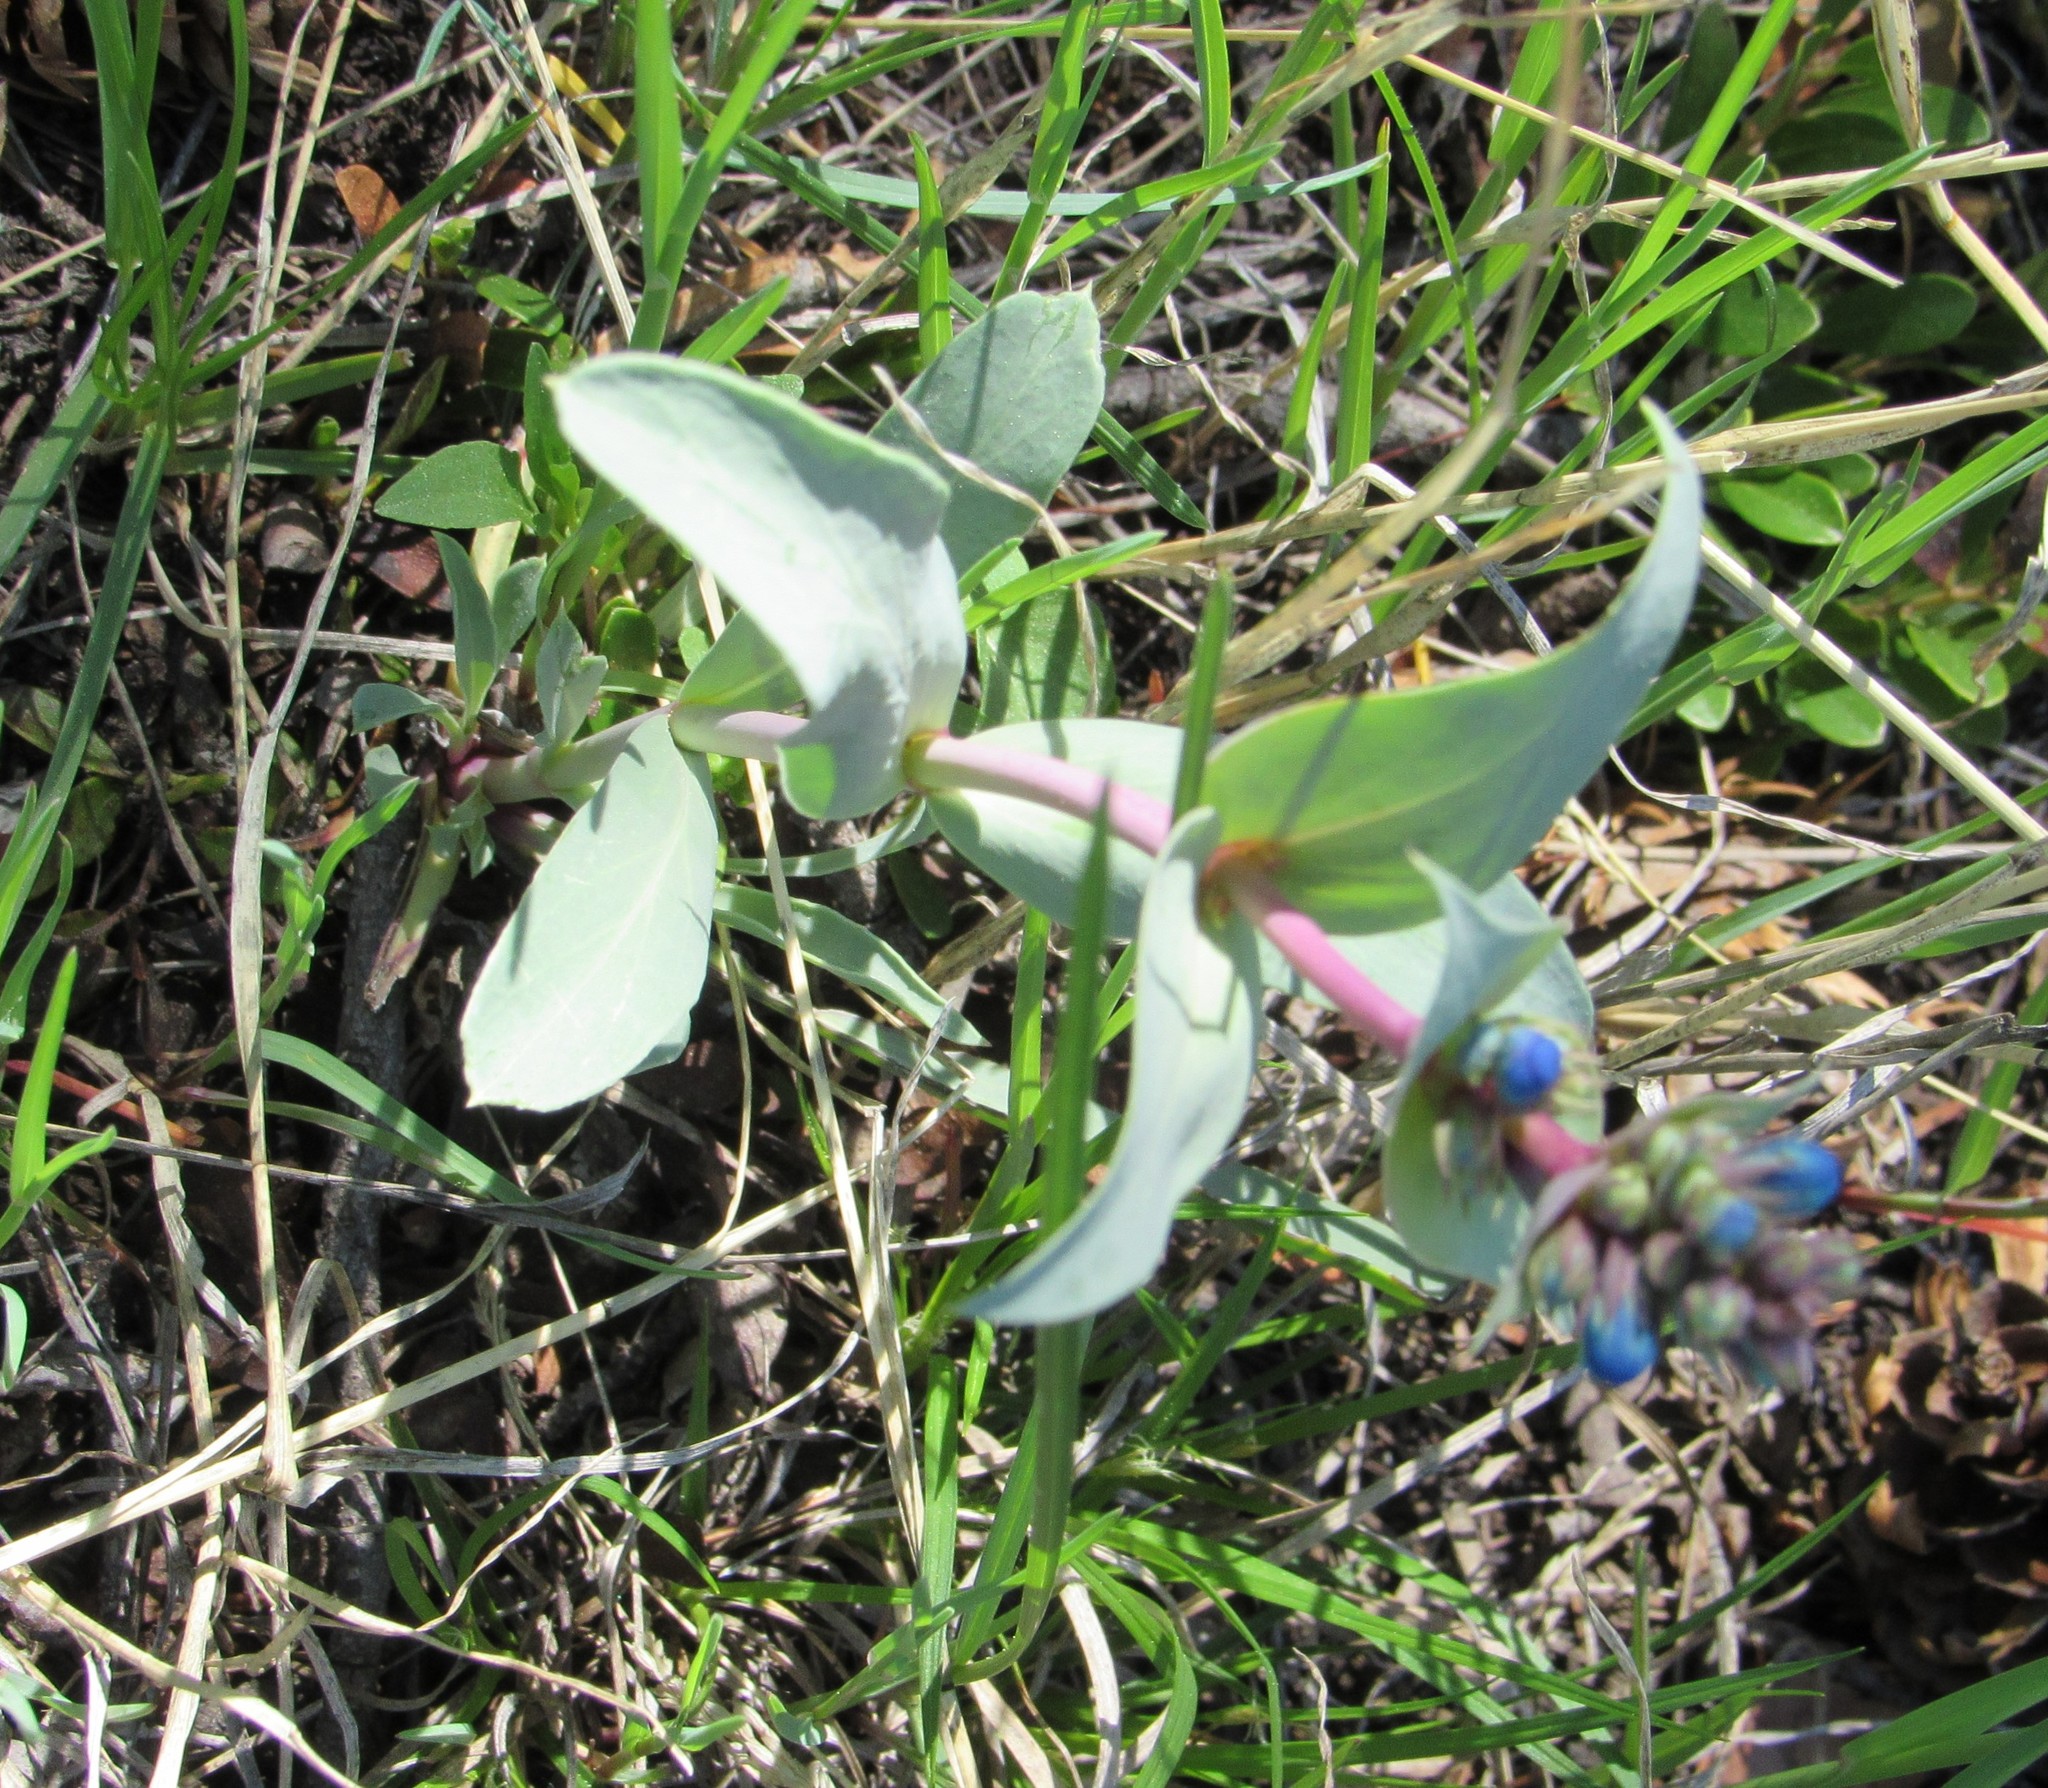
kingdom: Plantae
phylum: Tracheophyta
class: Magnoliopsida
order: Lamiales
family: Plantaginaceae
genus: Penstemon
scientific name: Penstemon nitidus
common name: Shining penstemon
